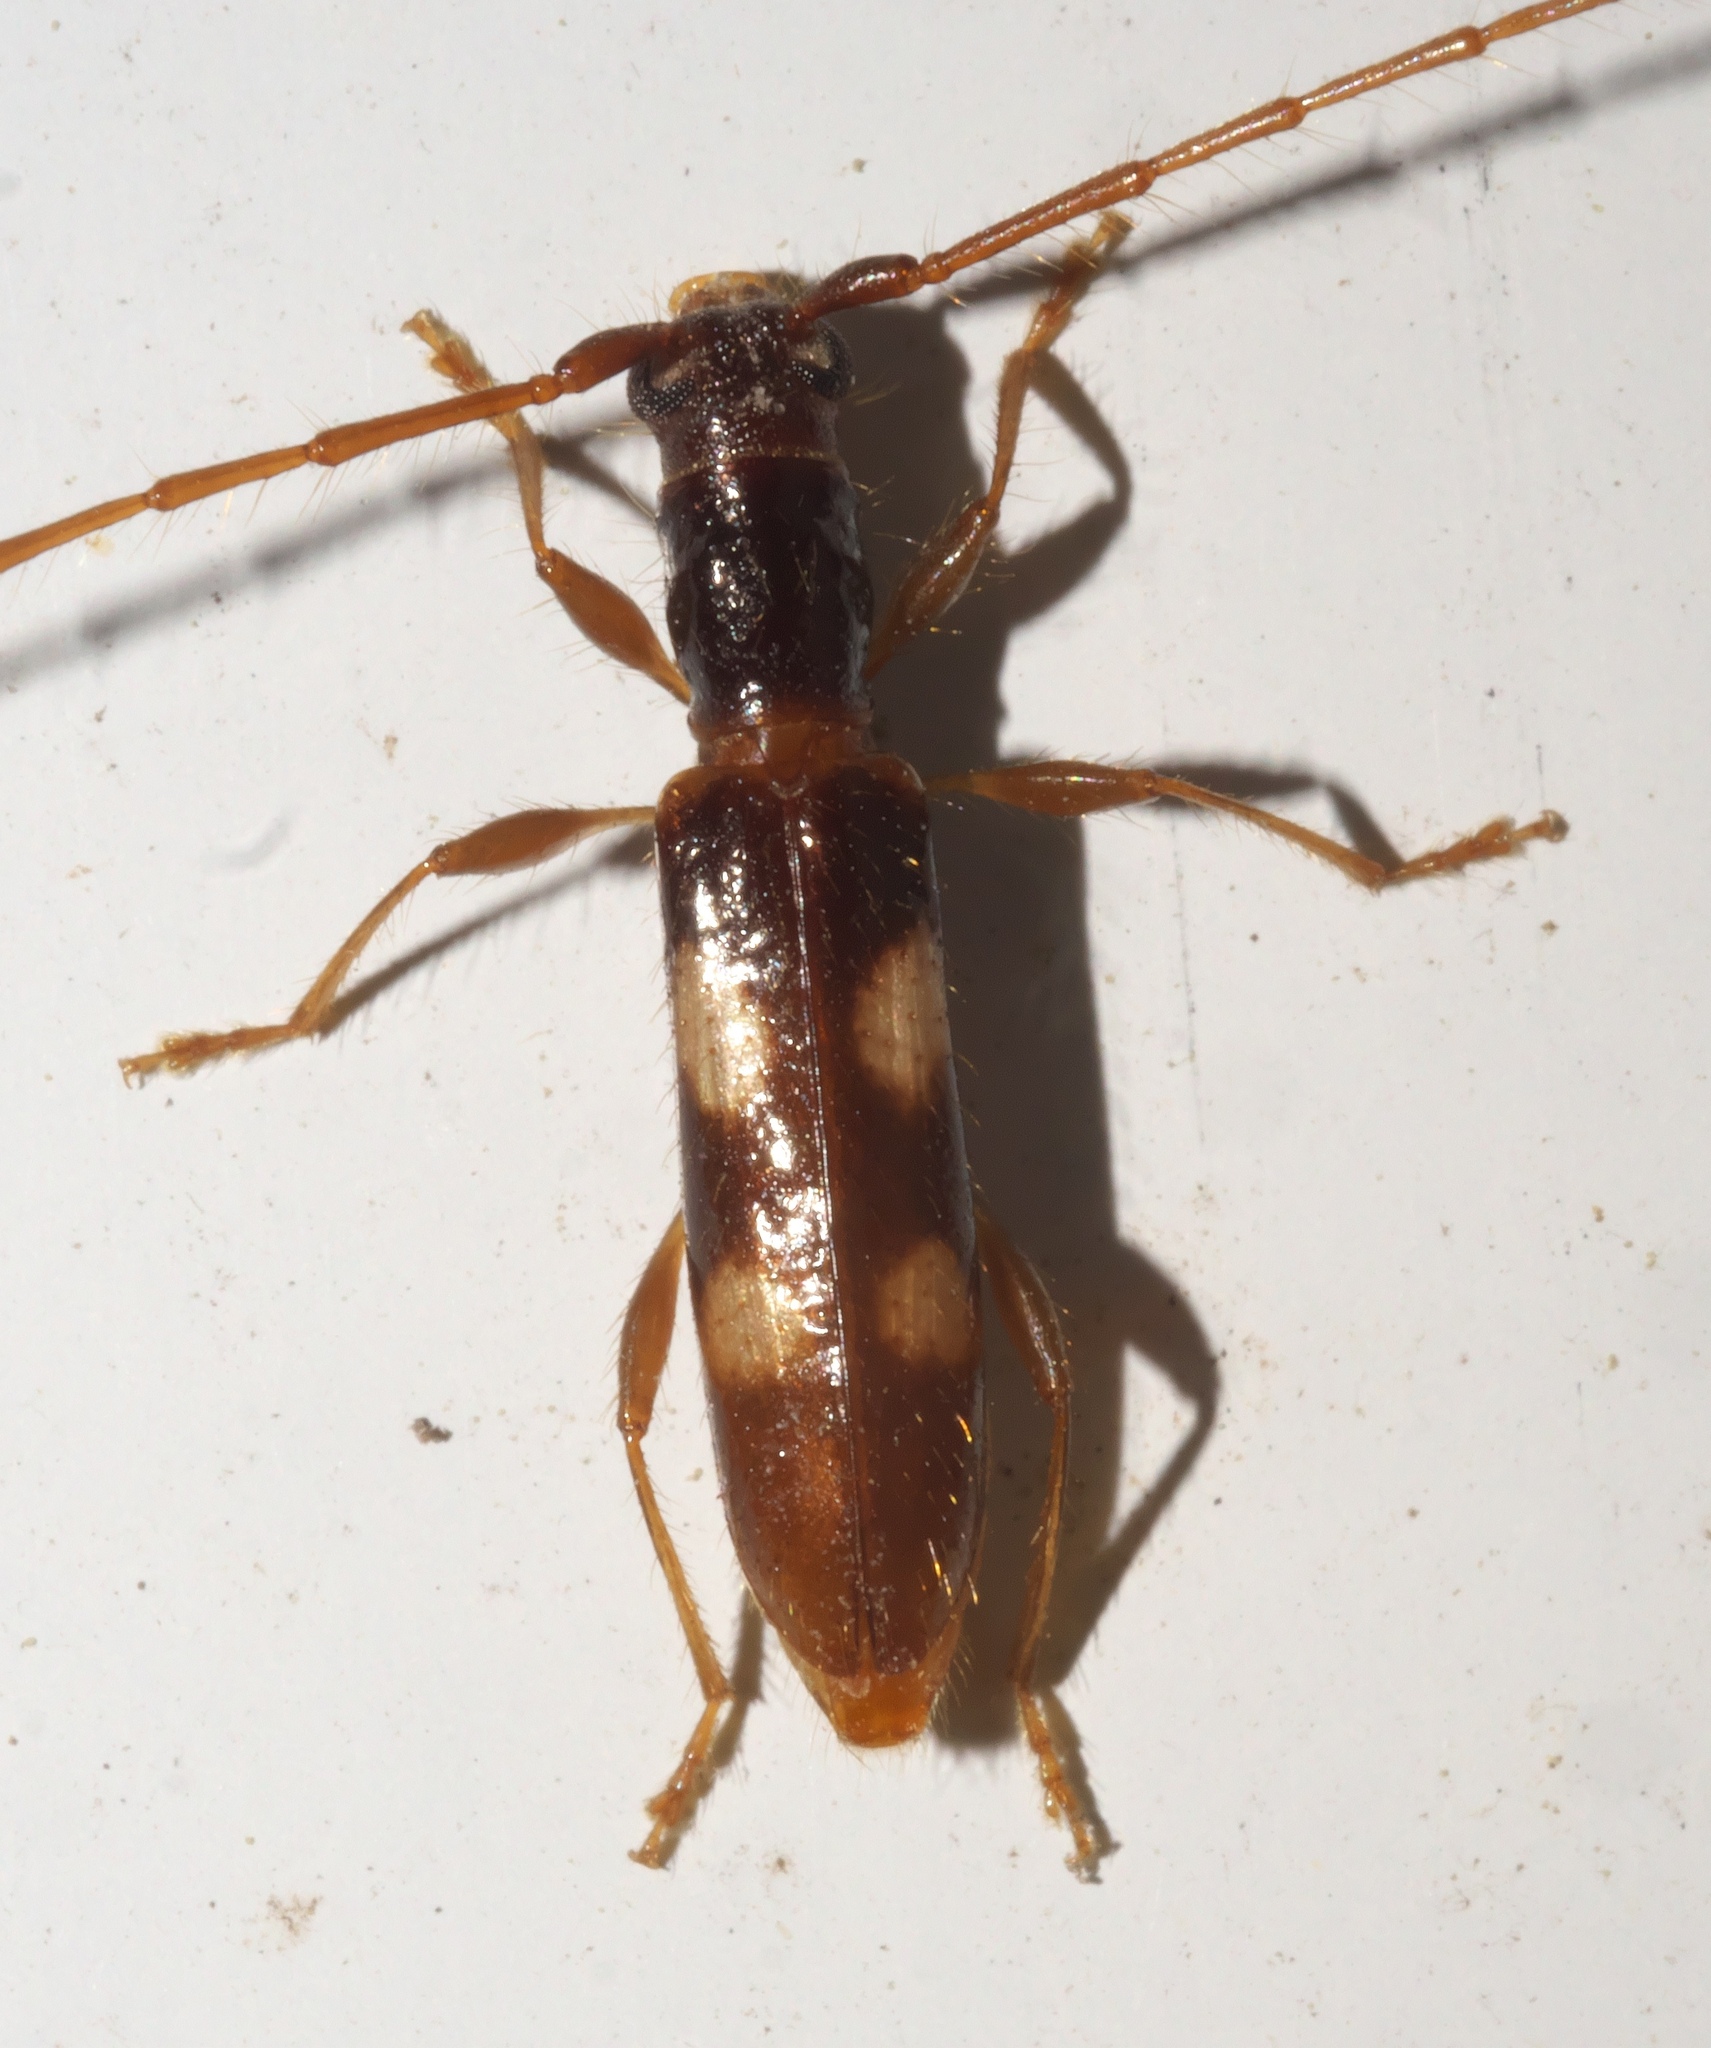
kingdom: Animalia
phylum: Arthropoda
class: Insecta
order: Coleoptera
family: Cerambycidae
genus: Heterachthes
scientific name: Heterachthes quadrimaculatus
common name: Four-spotted hickory borer
